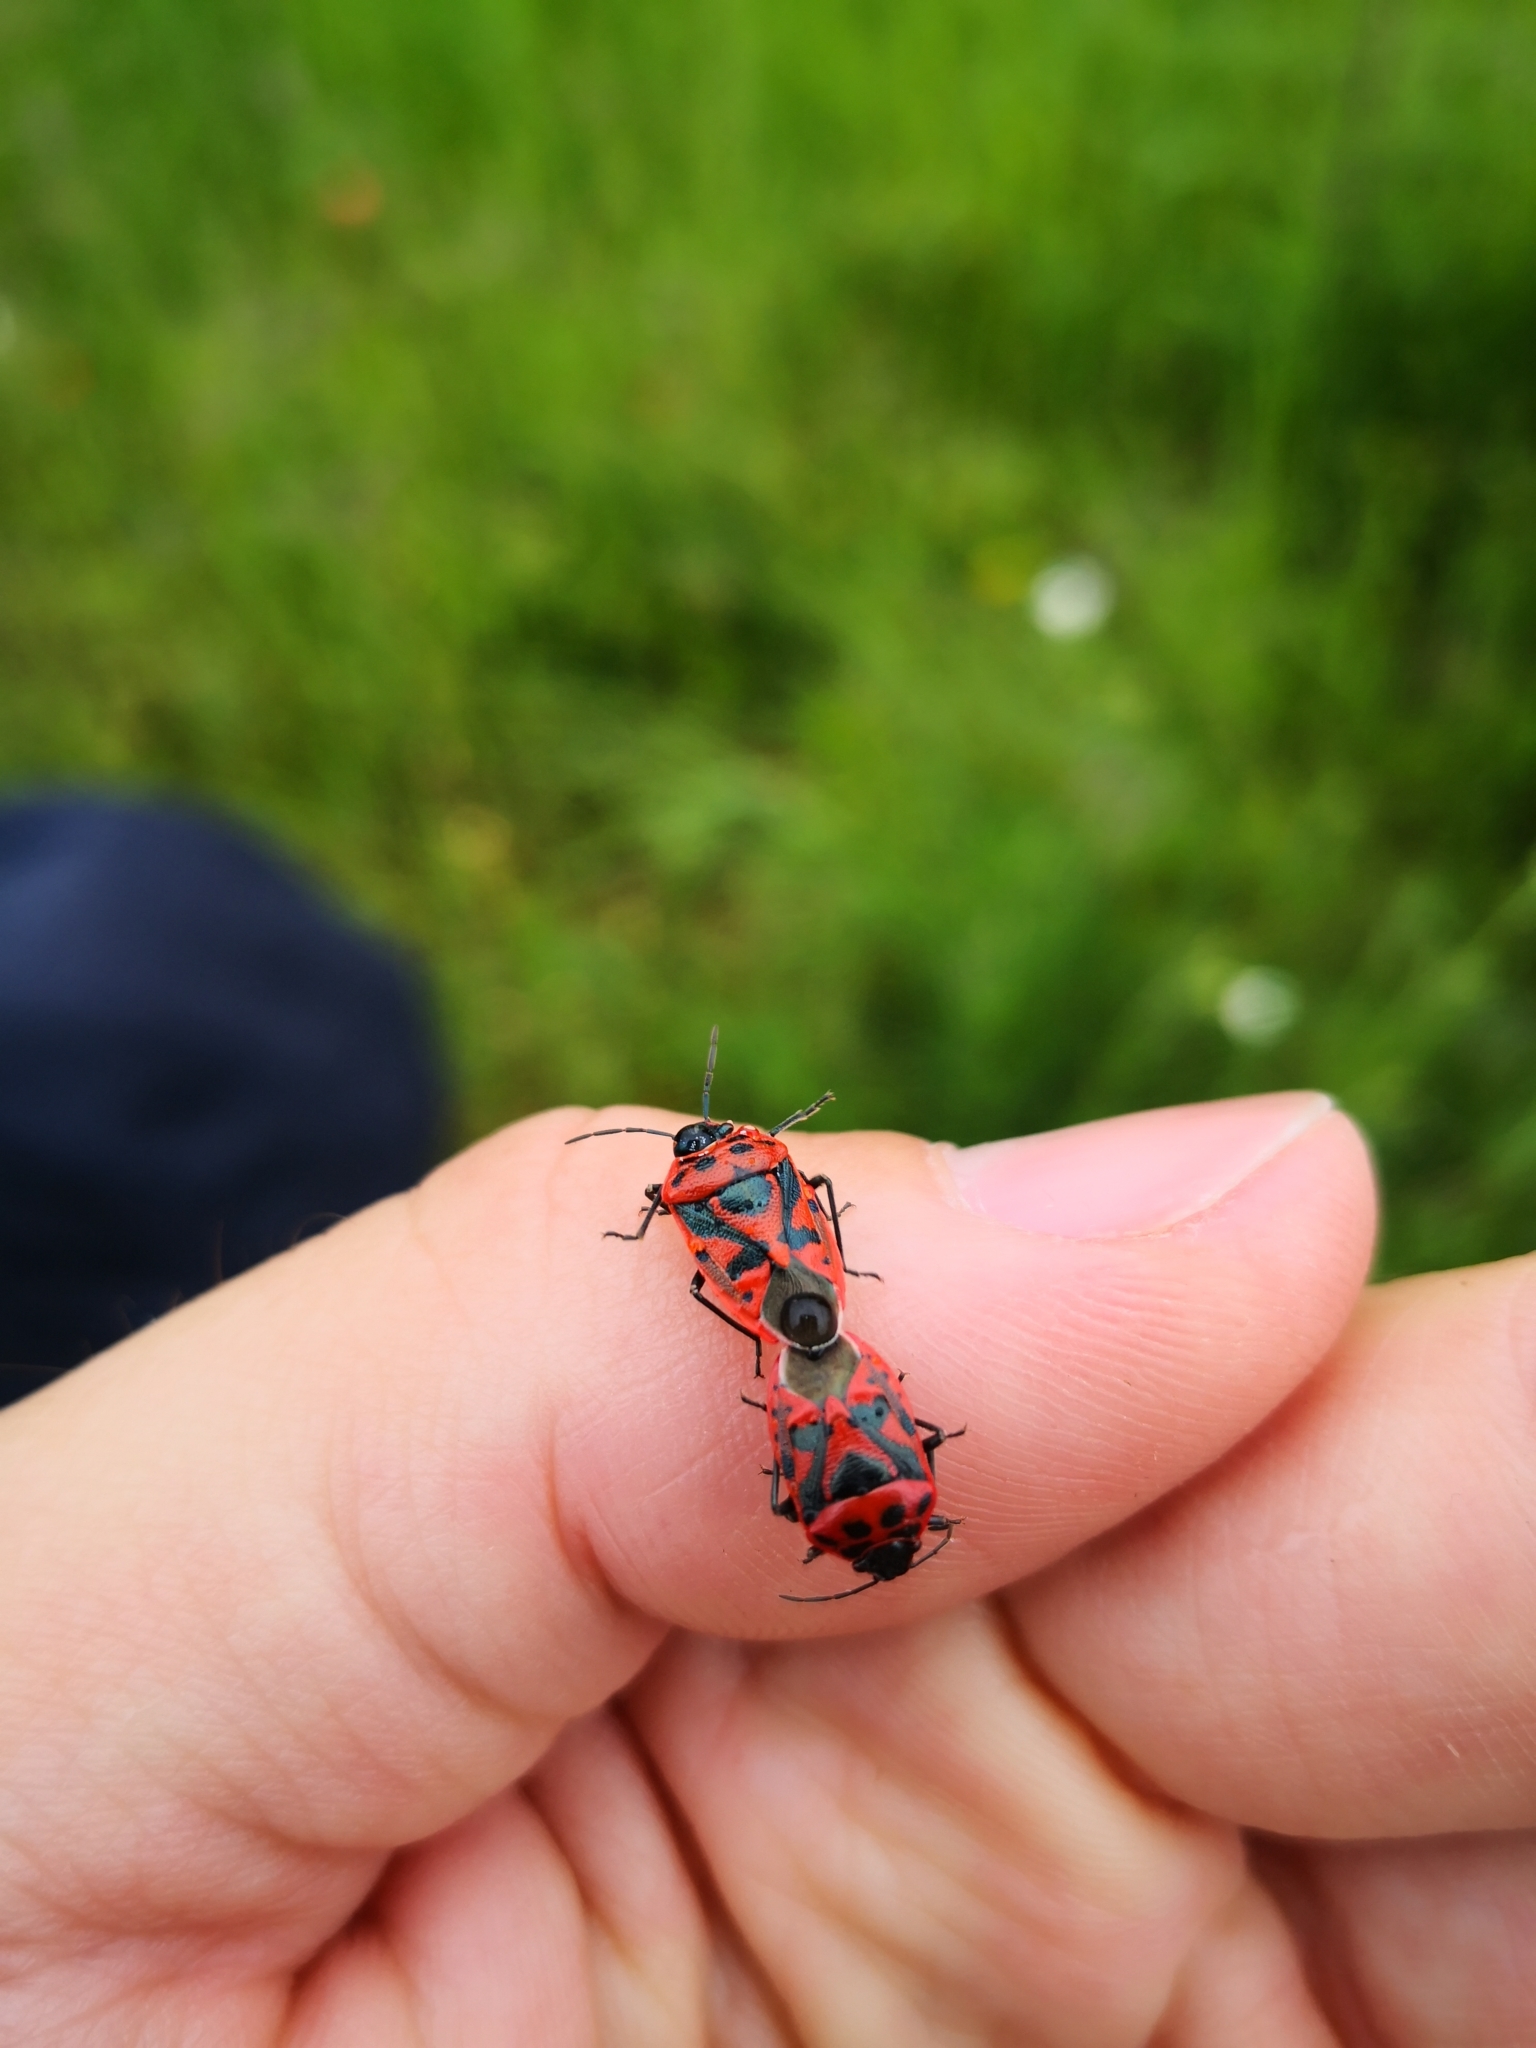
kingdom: Animalia
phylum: Arthropoda
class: Insecta
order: Hemiptera
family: Pentatomidae
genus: Eurydema
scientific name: Eurydema ornata
